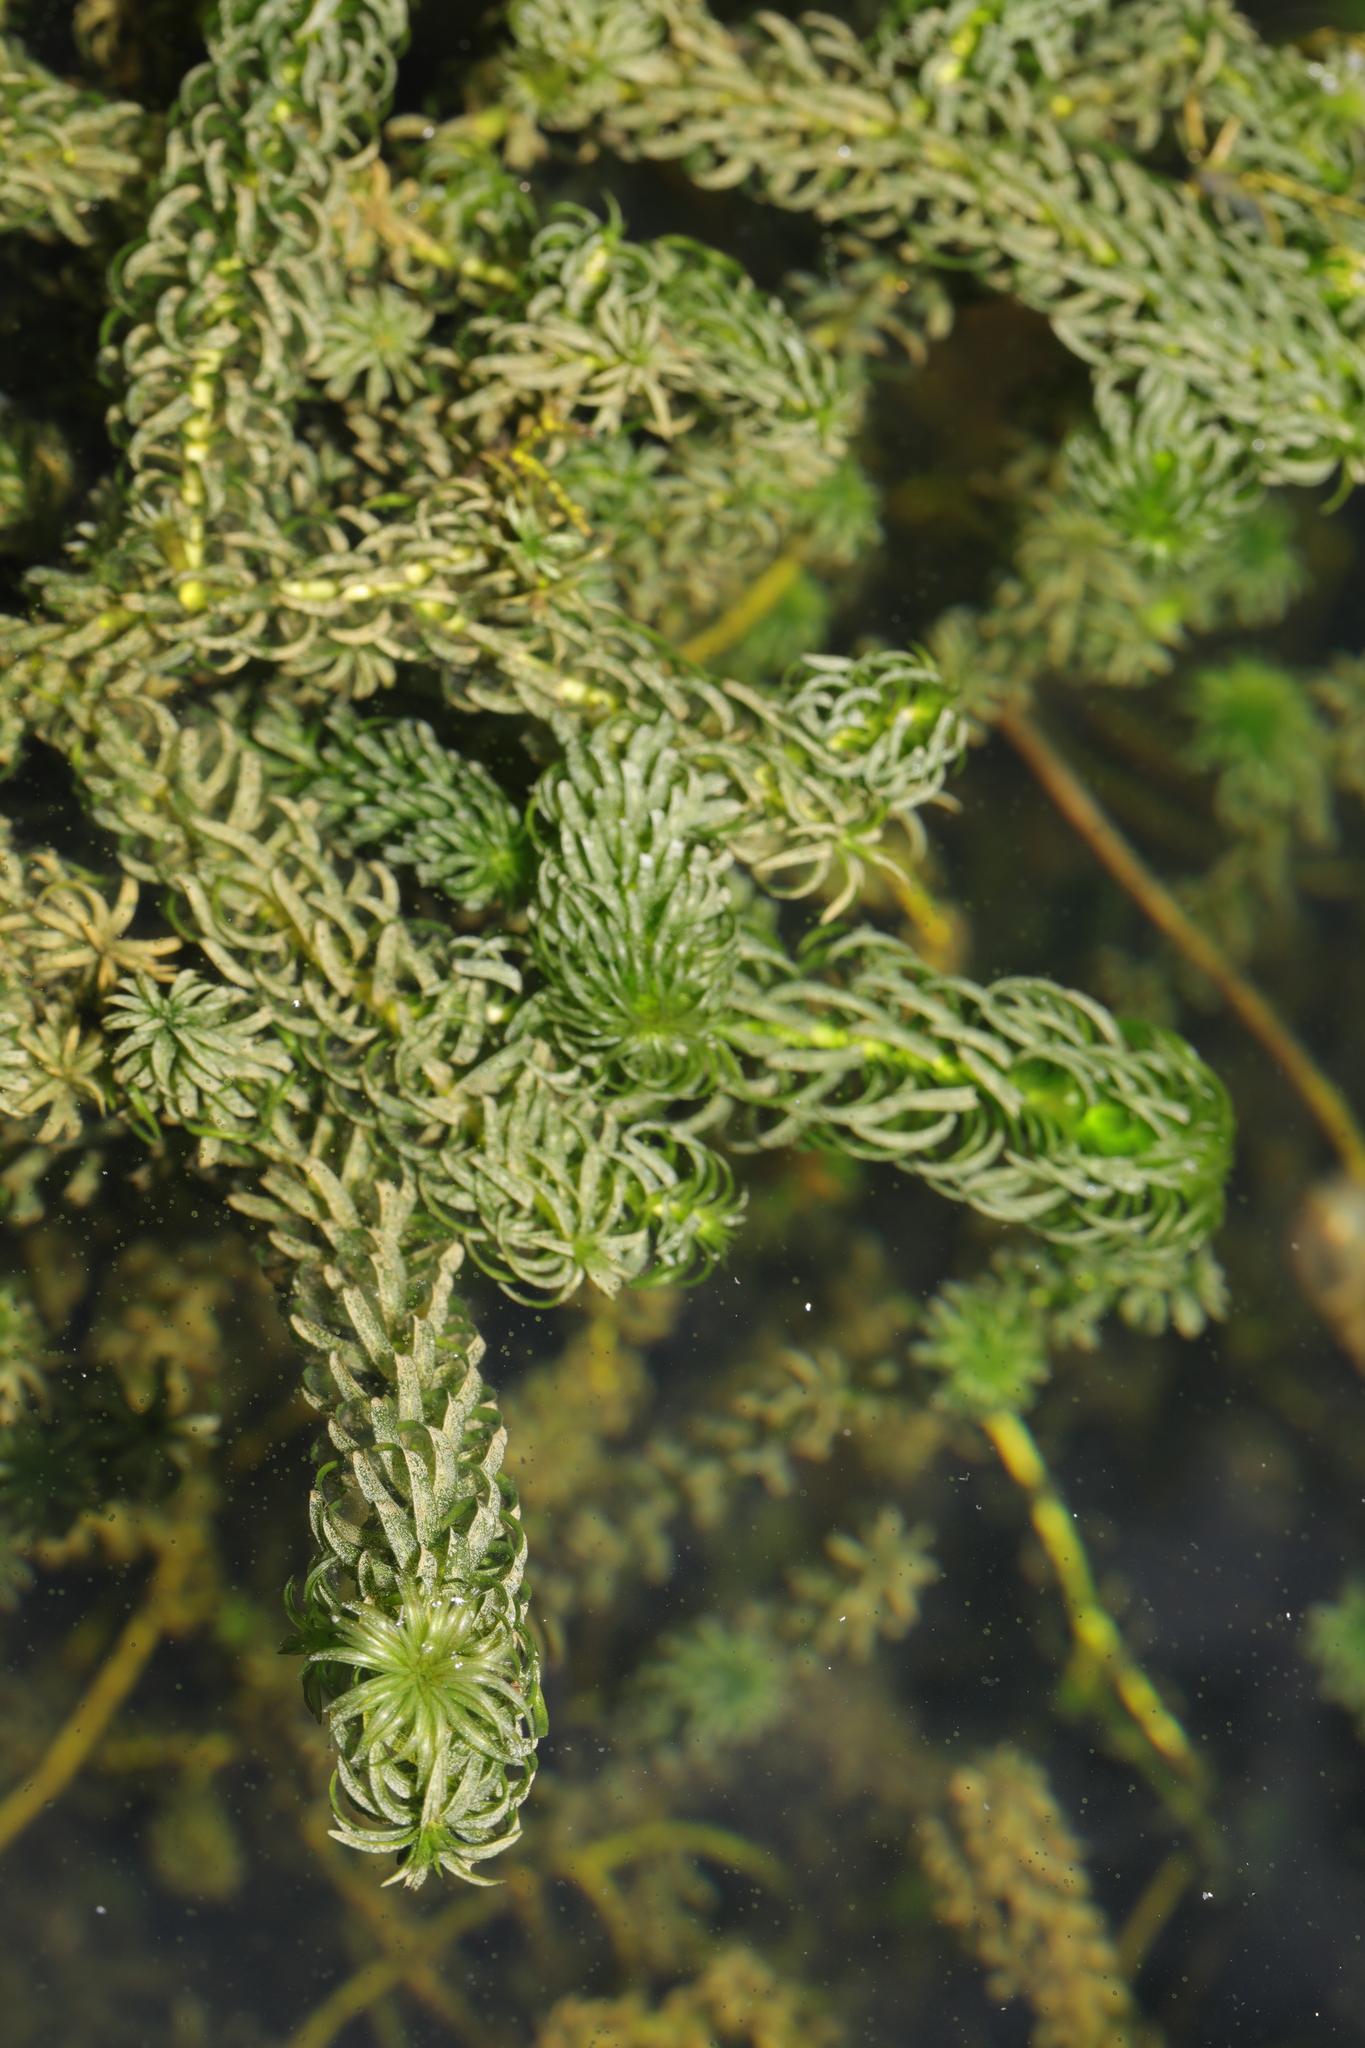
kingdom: Plantae
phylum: Tracheophyta
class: Liliopsida
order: Alismatales
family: Hydrocharitaceae
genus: Lagarosiphon
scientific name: Lagarosiphon major
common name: Curly waterweed
